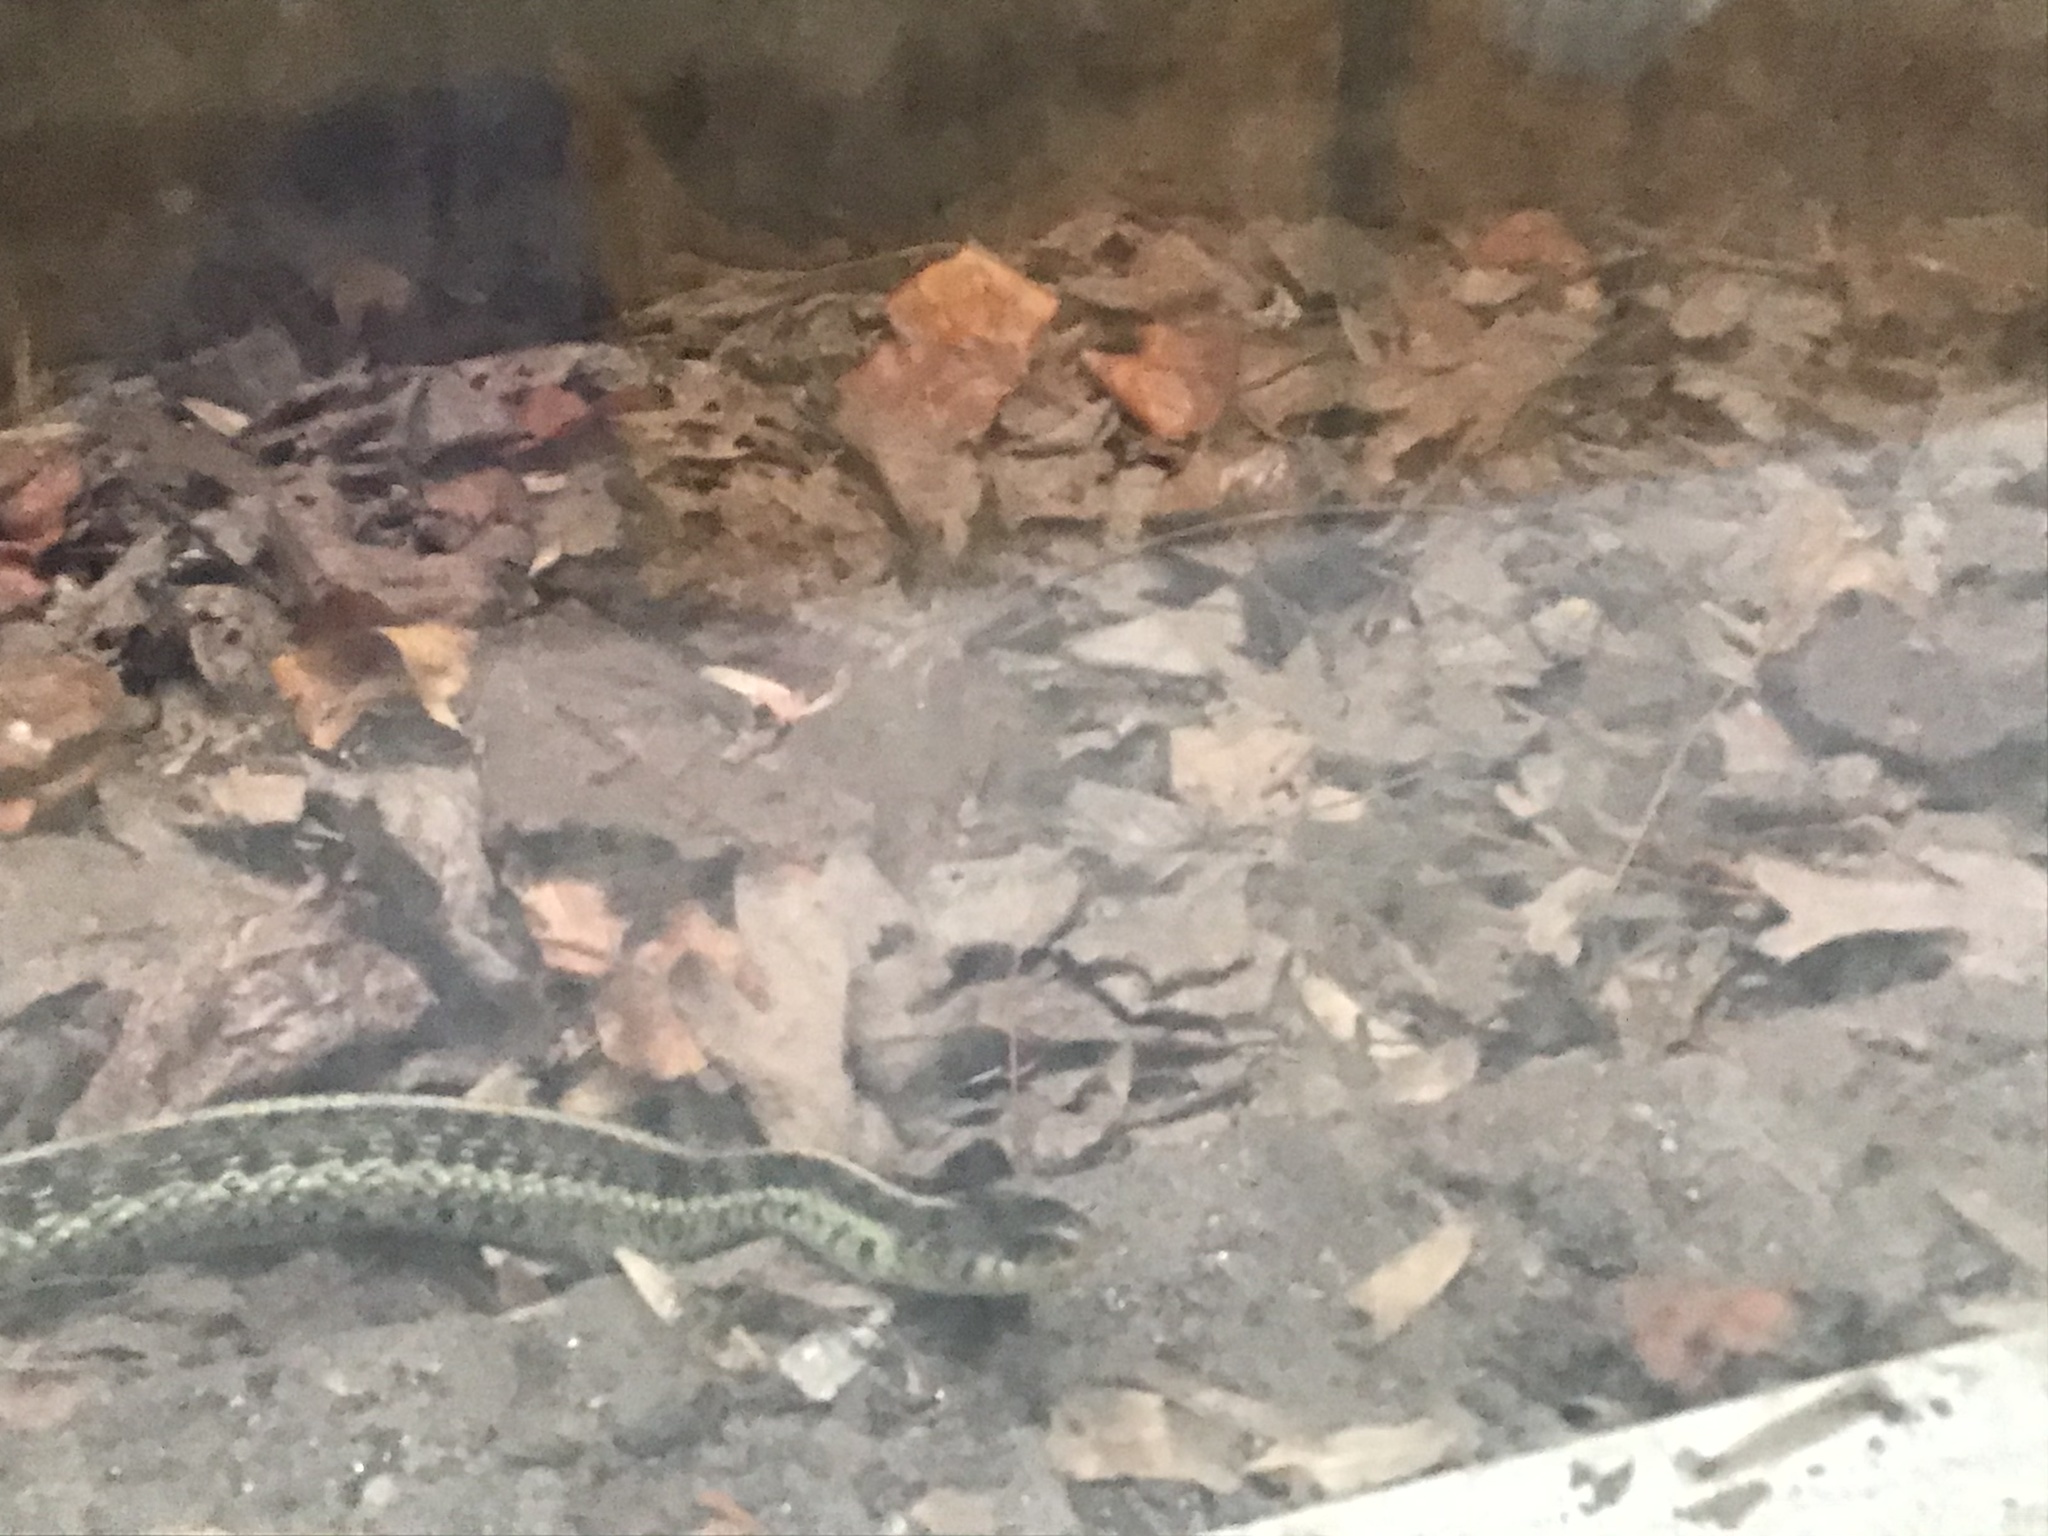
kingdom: Animalia
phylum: Chordata
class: Squamata
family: Colubridae
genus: Thamnophis
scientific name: Thamnophis sirtalis
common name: Common garter snake
